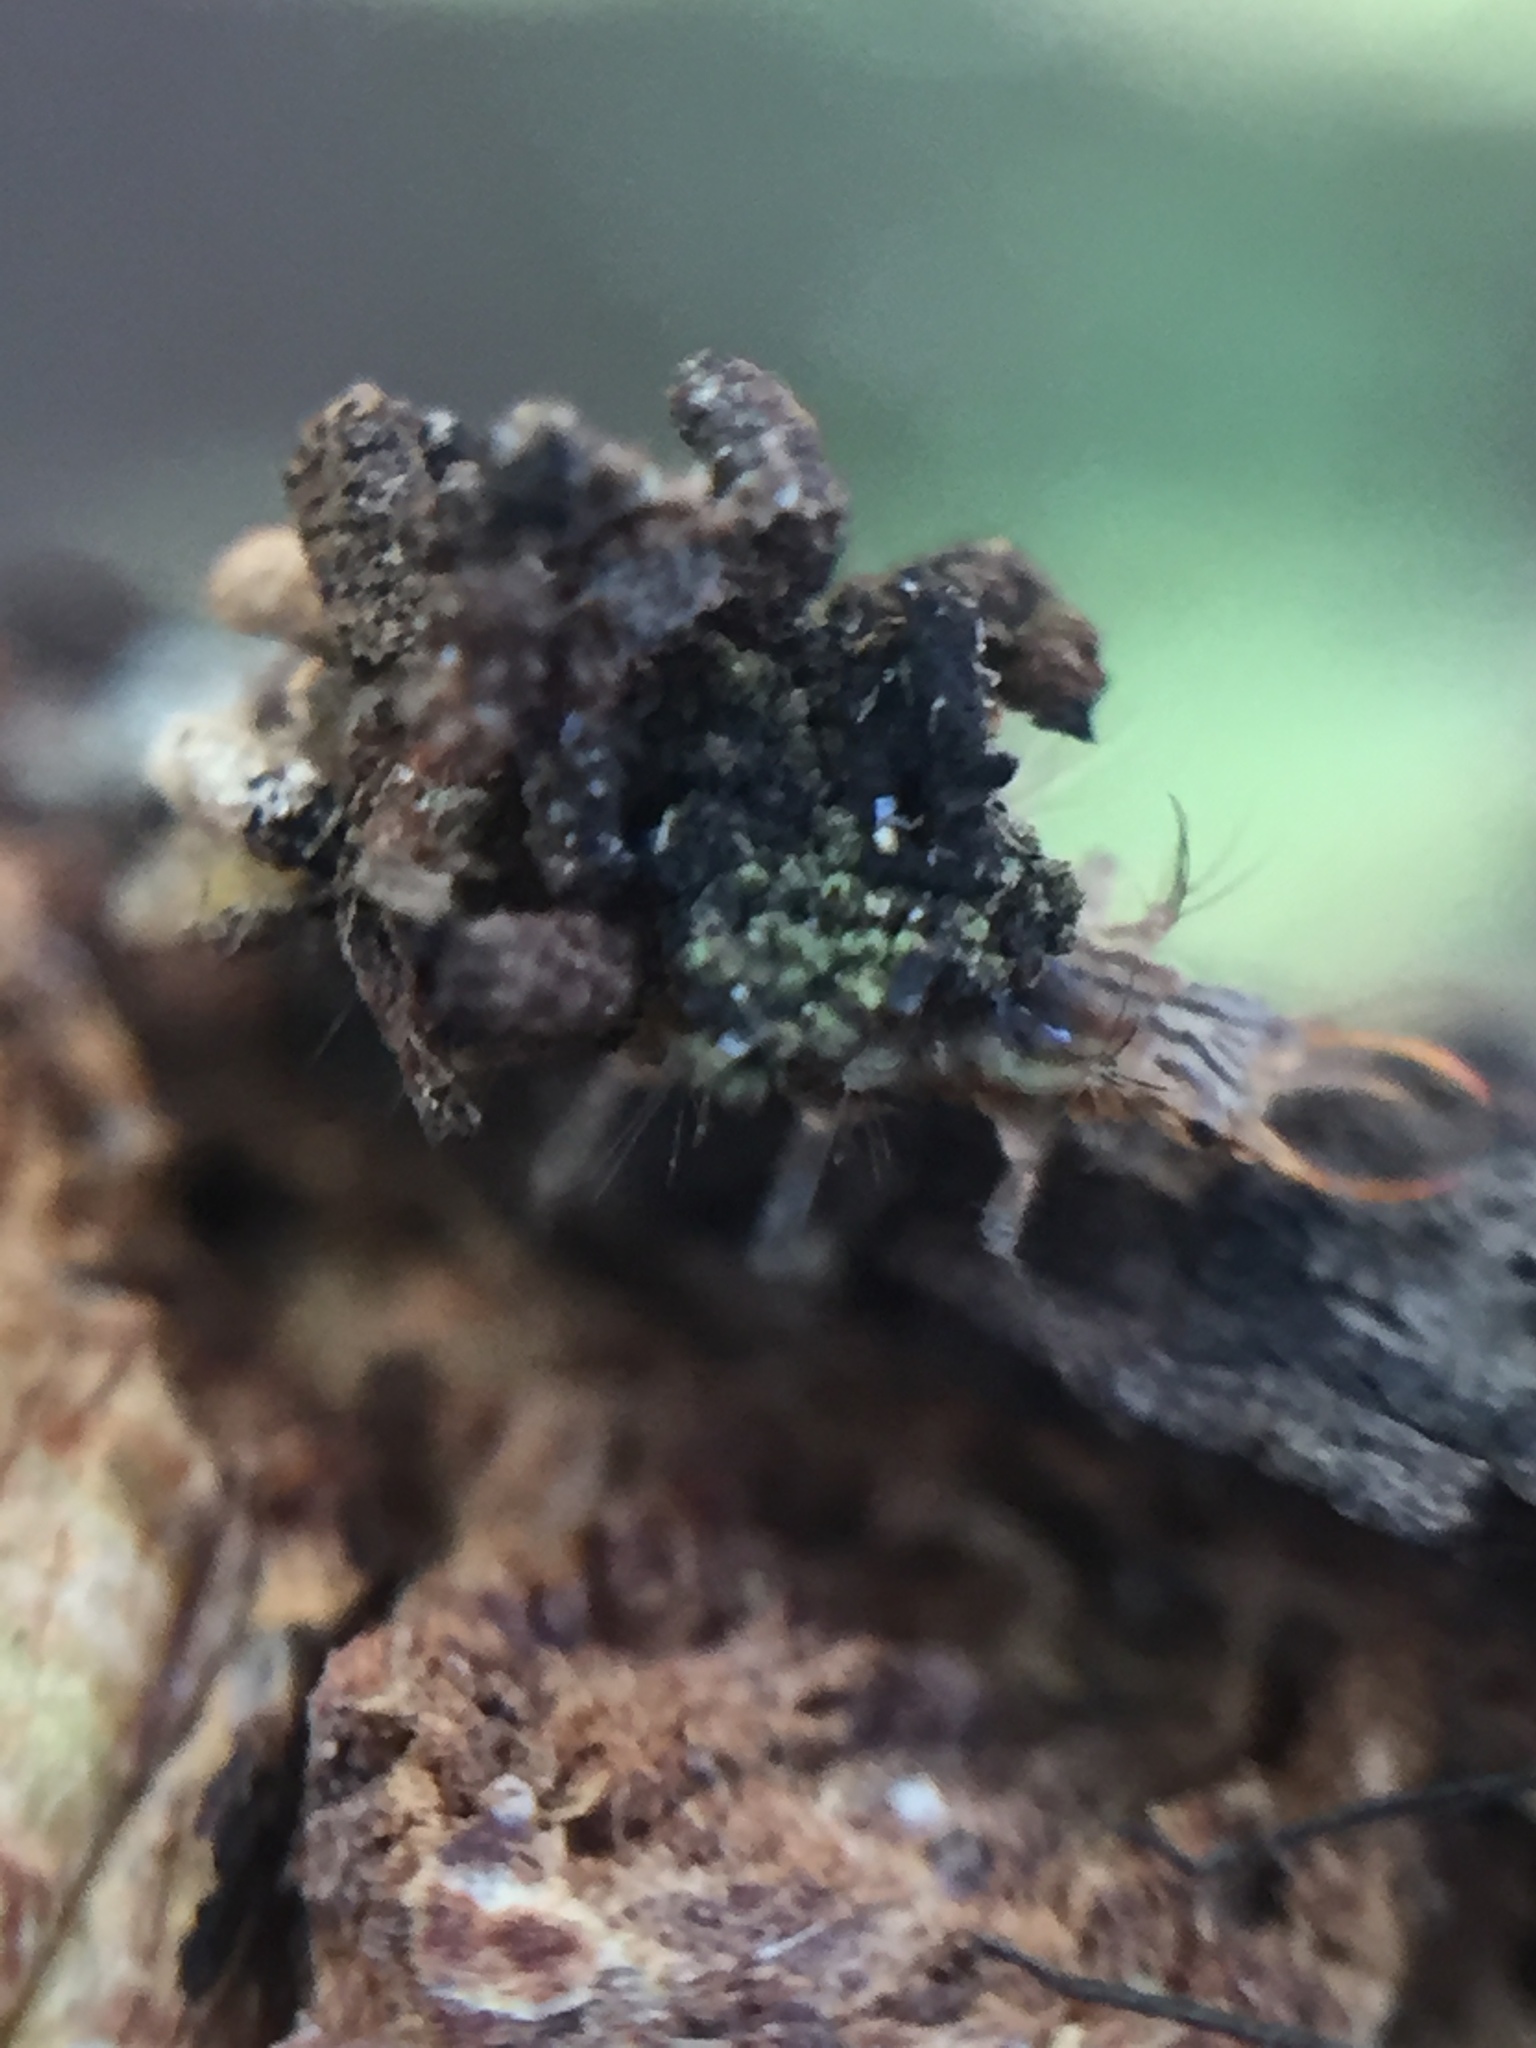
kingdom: Animalia
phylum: Arthropoda
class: Insecta
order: Neuroptera
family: Chrysopidae
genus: Mallada
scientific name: Mallada basalis
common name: Green lacewing
